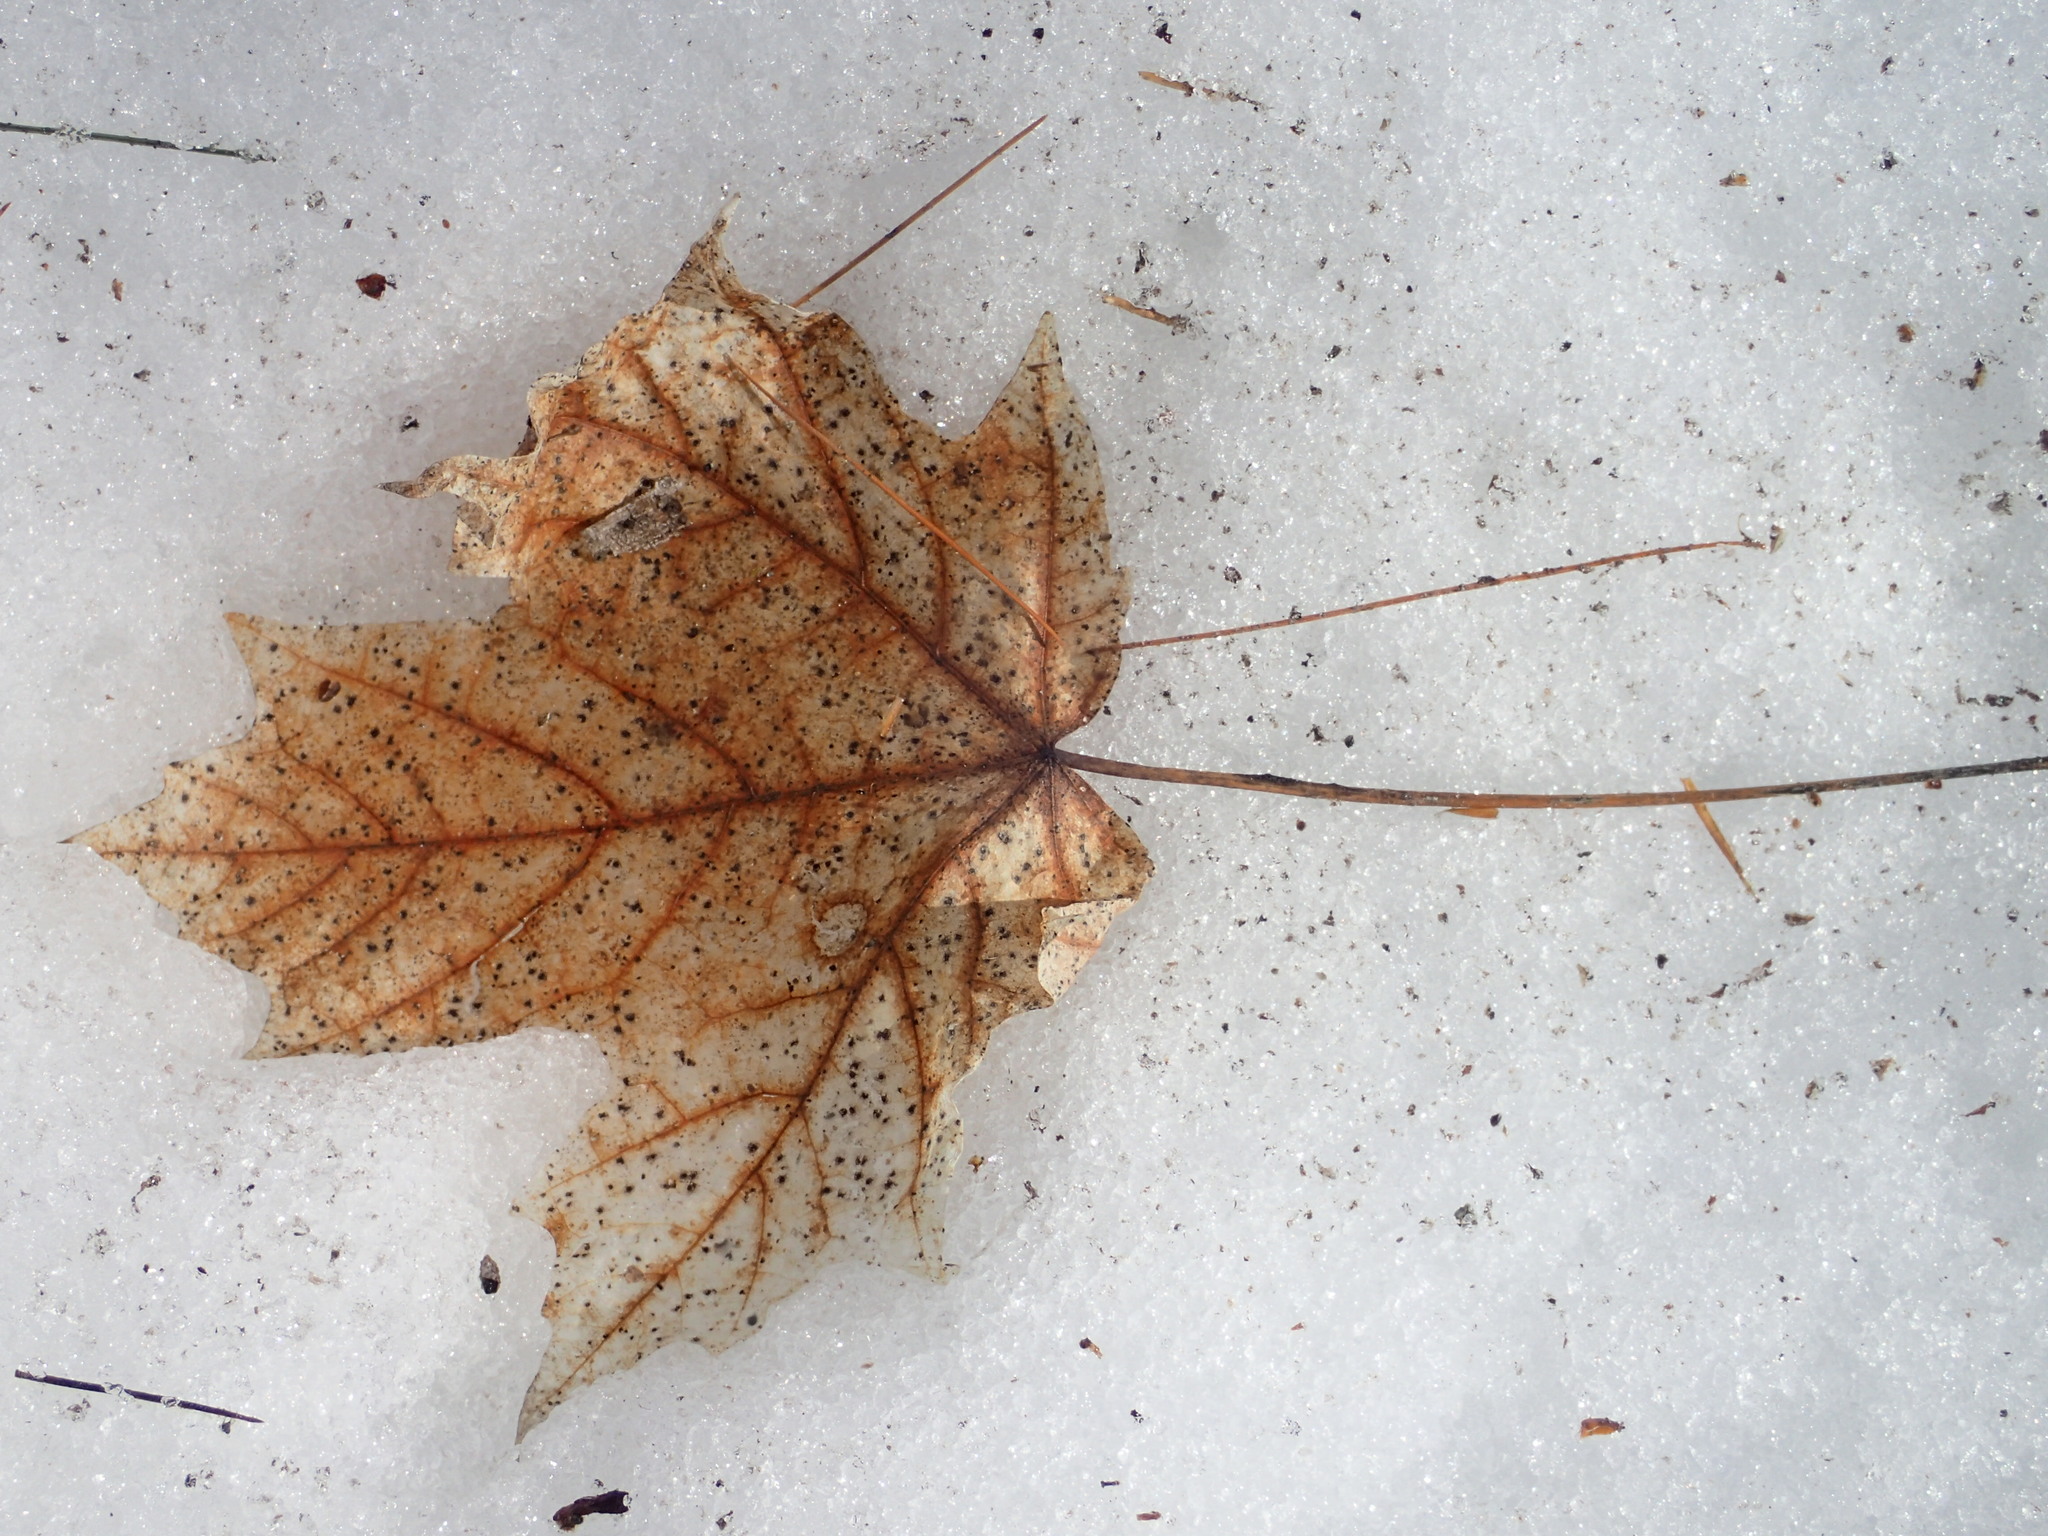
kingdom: Plantae
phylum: Tracheophyta
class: Magnoliopsida
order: Sapindales
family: Sapindaceae
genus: Acer
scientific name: Acer saccharum
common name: Sugar maple
